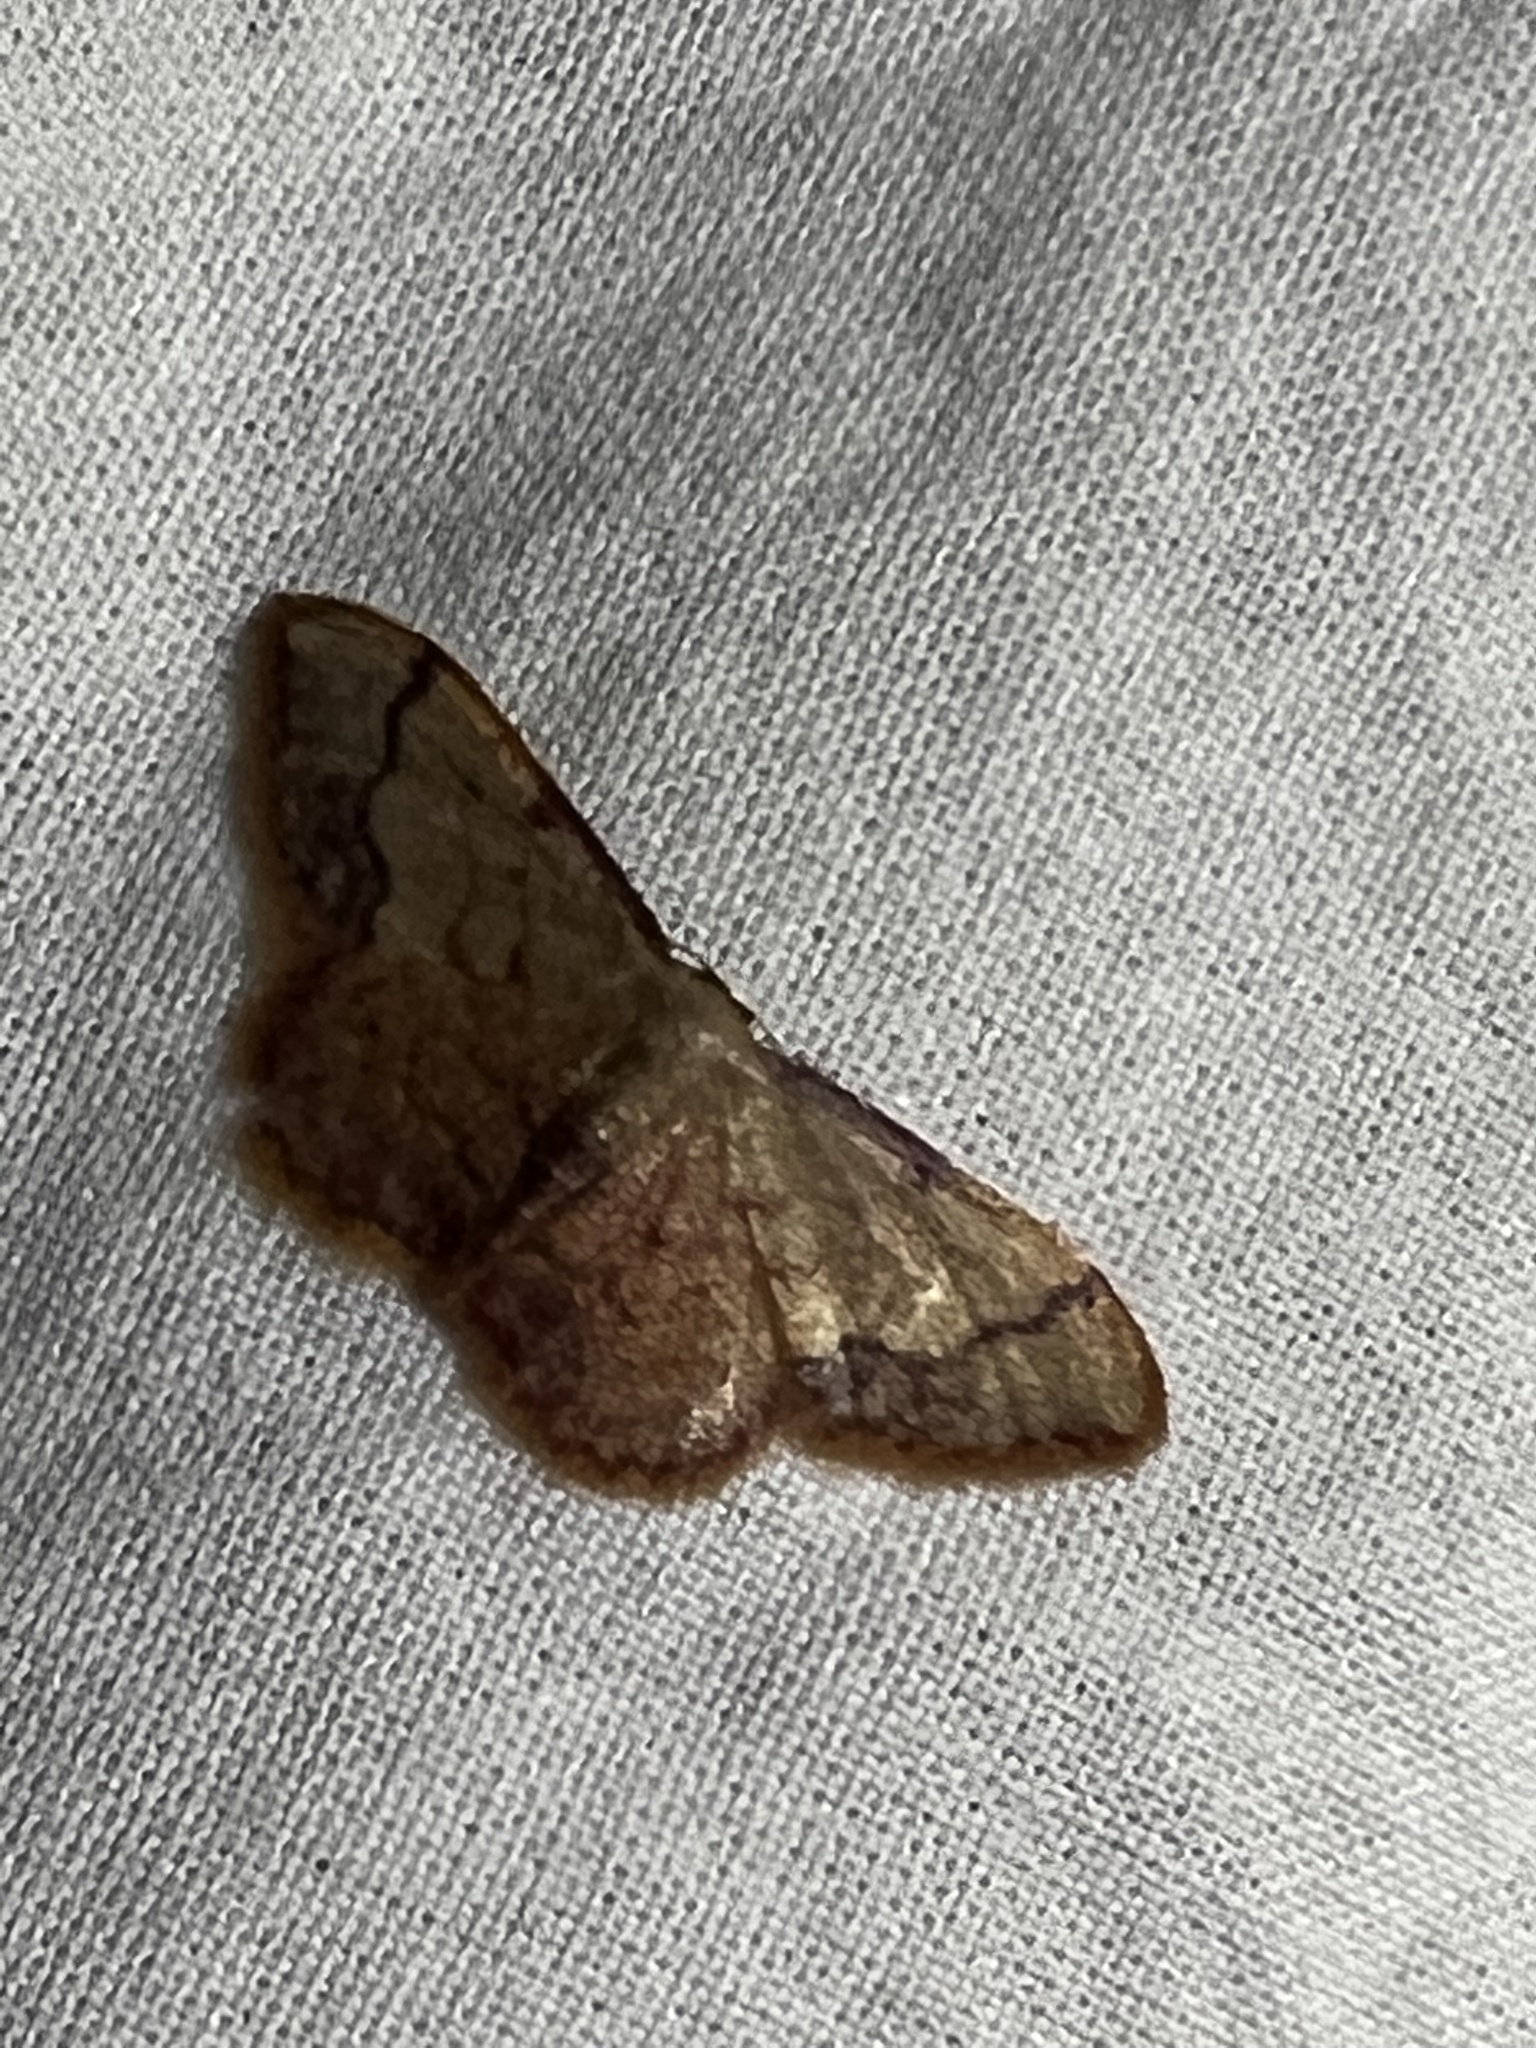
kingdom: Animalia
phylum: Arthropoda
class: Insecta
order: Lepidoptera
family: Geometridae
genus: Idaea
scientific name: Idaea ostrinaria
